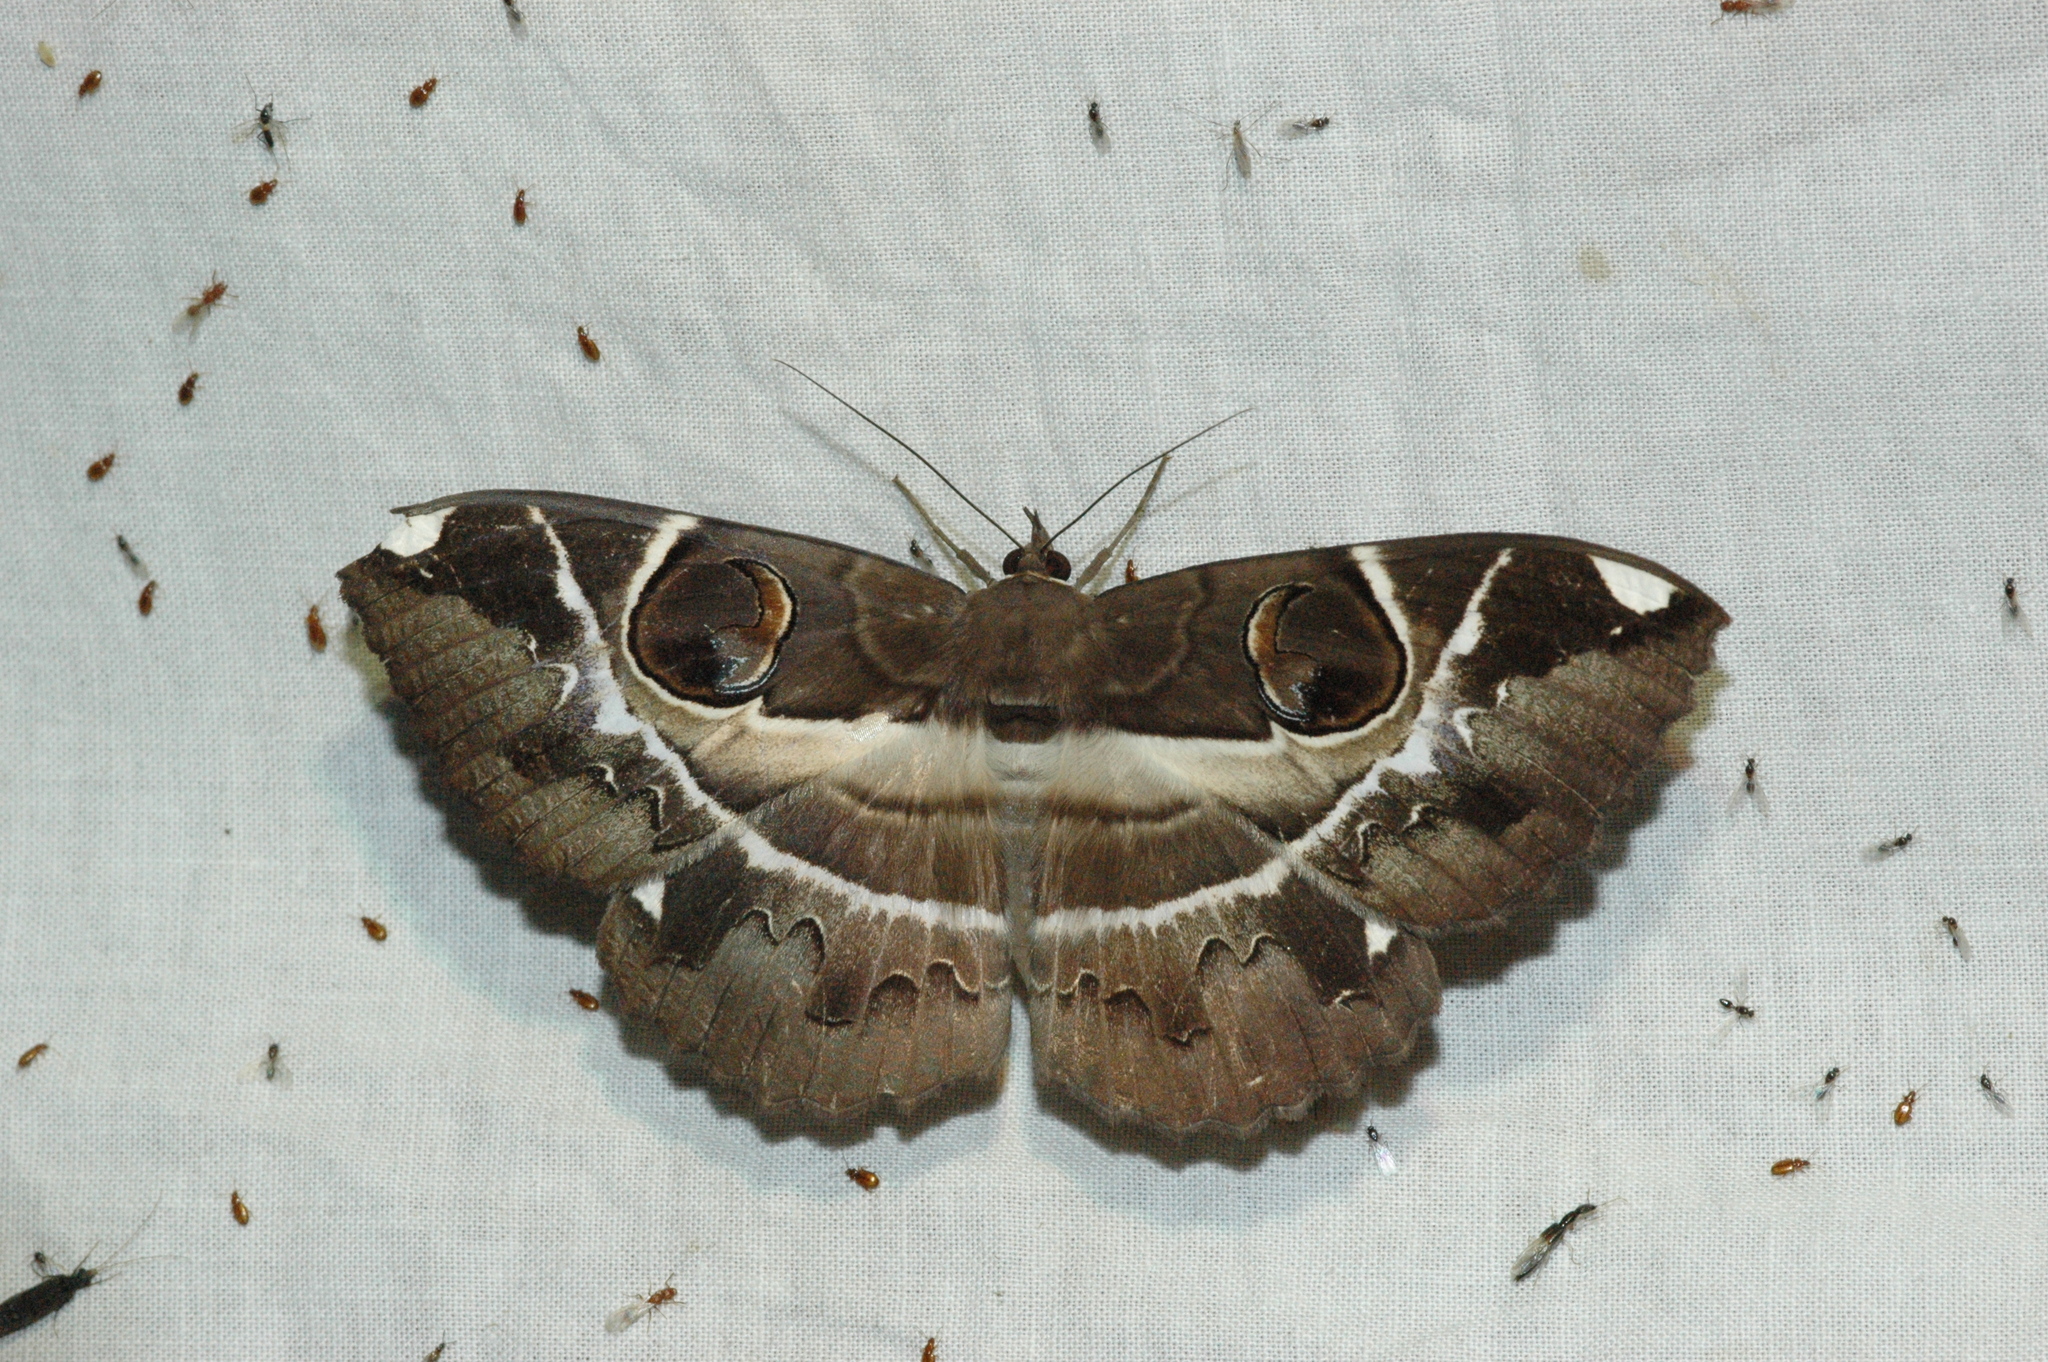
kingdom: Animalia
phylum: Arthropoda
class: Insecta
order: Lepidoptera
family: Erebidae
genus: Erebus
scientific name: Erebus ephesperis
